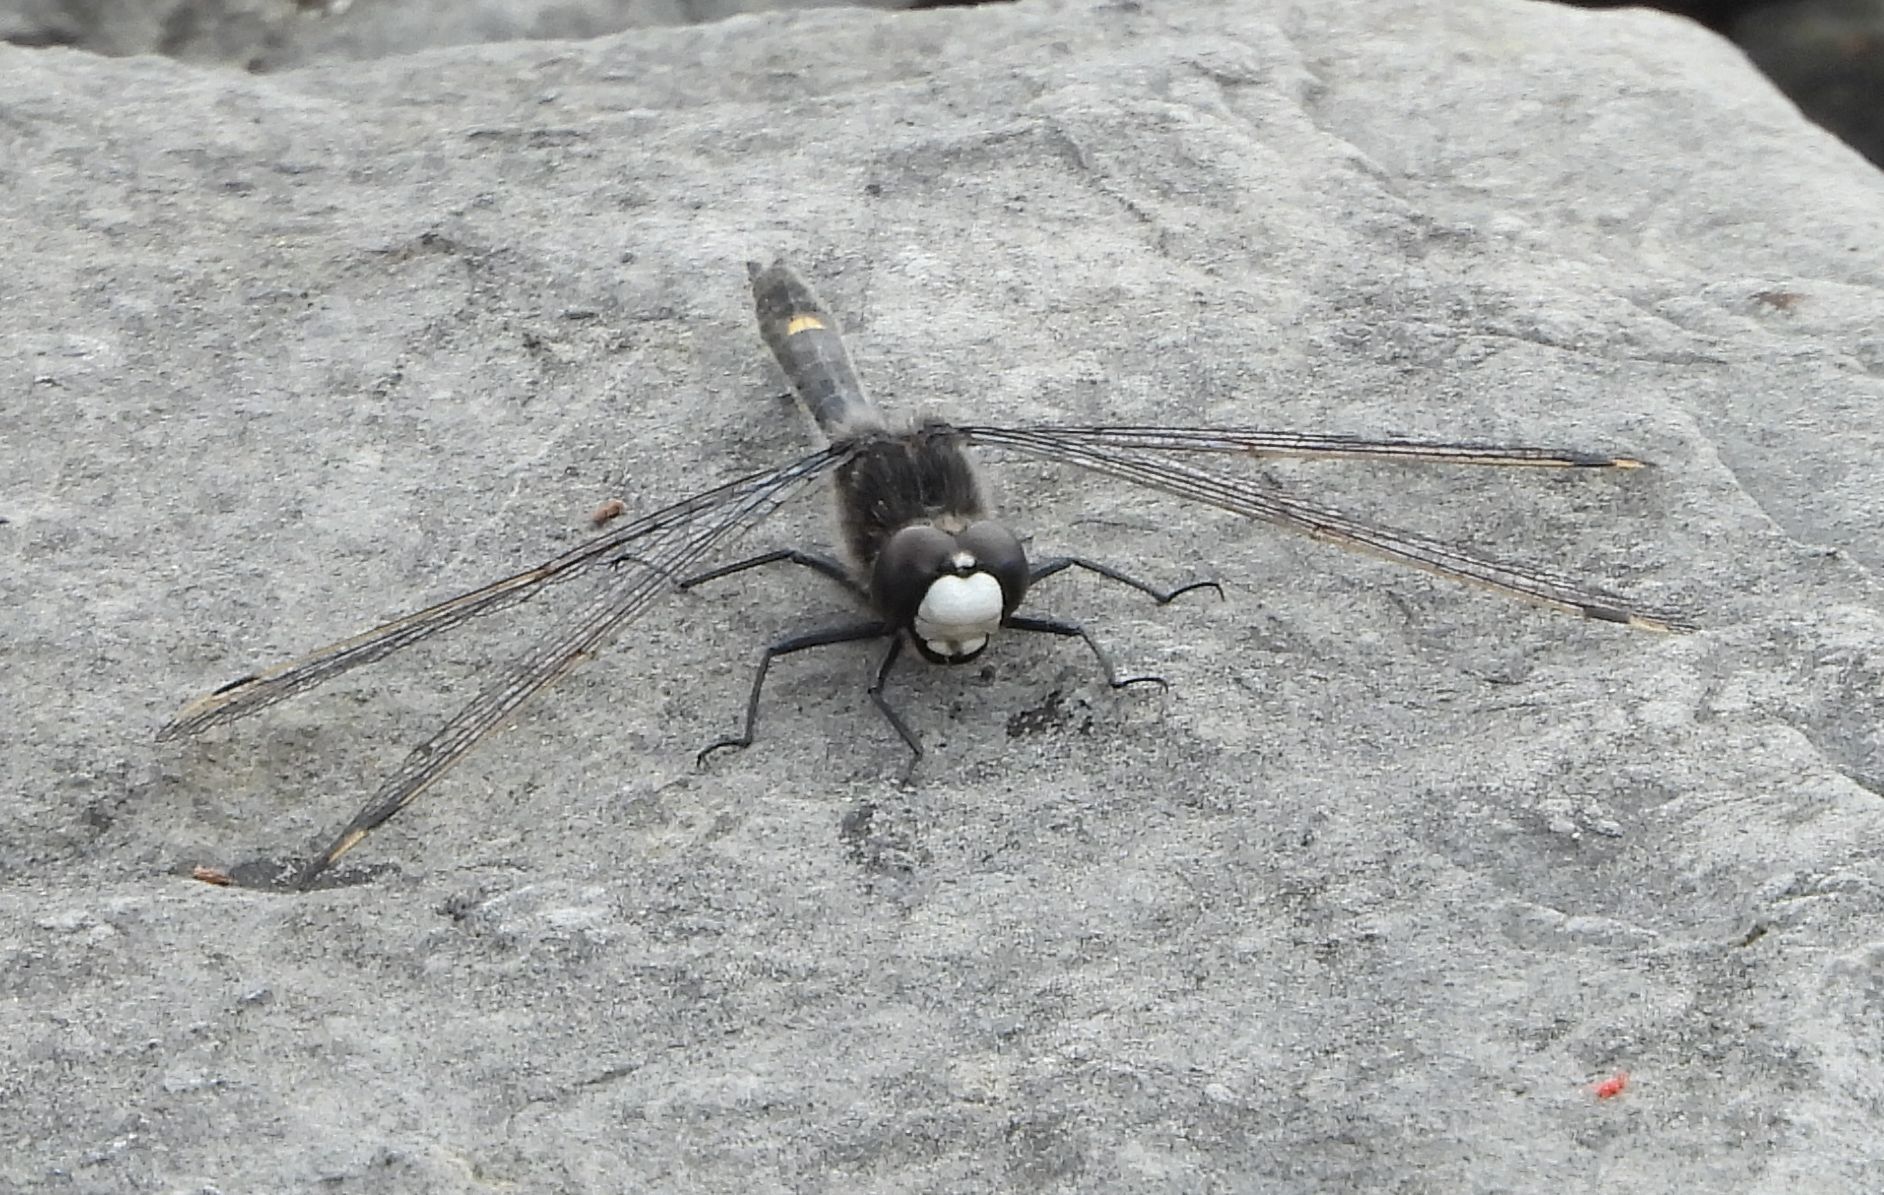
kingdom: Animalia
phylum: Arthropoda
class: Insecta
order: Odonata
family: Libellulidae
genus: Leucorrhinia
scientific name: Leucorrhinia intacta
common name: Dot-tailed whiteface
